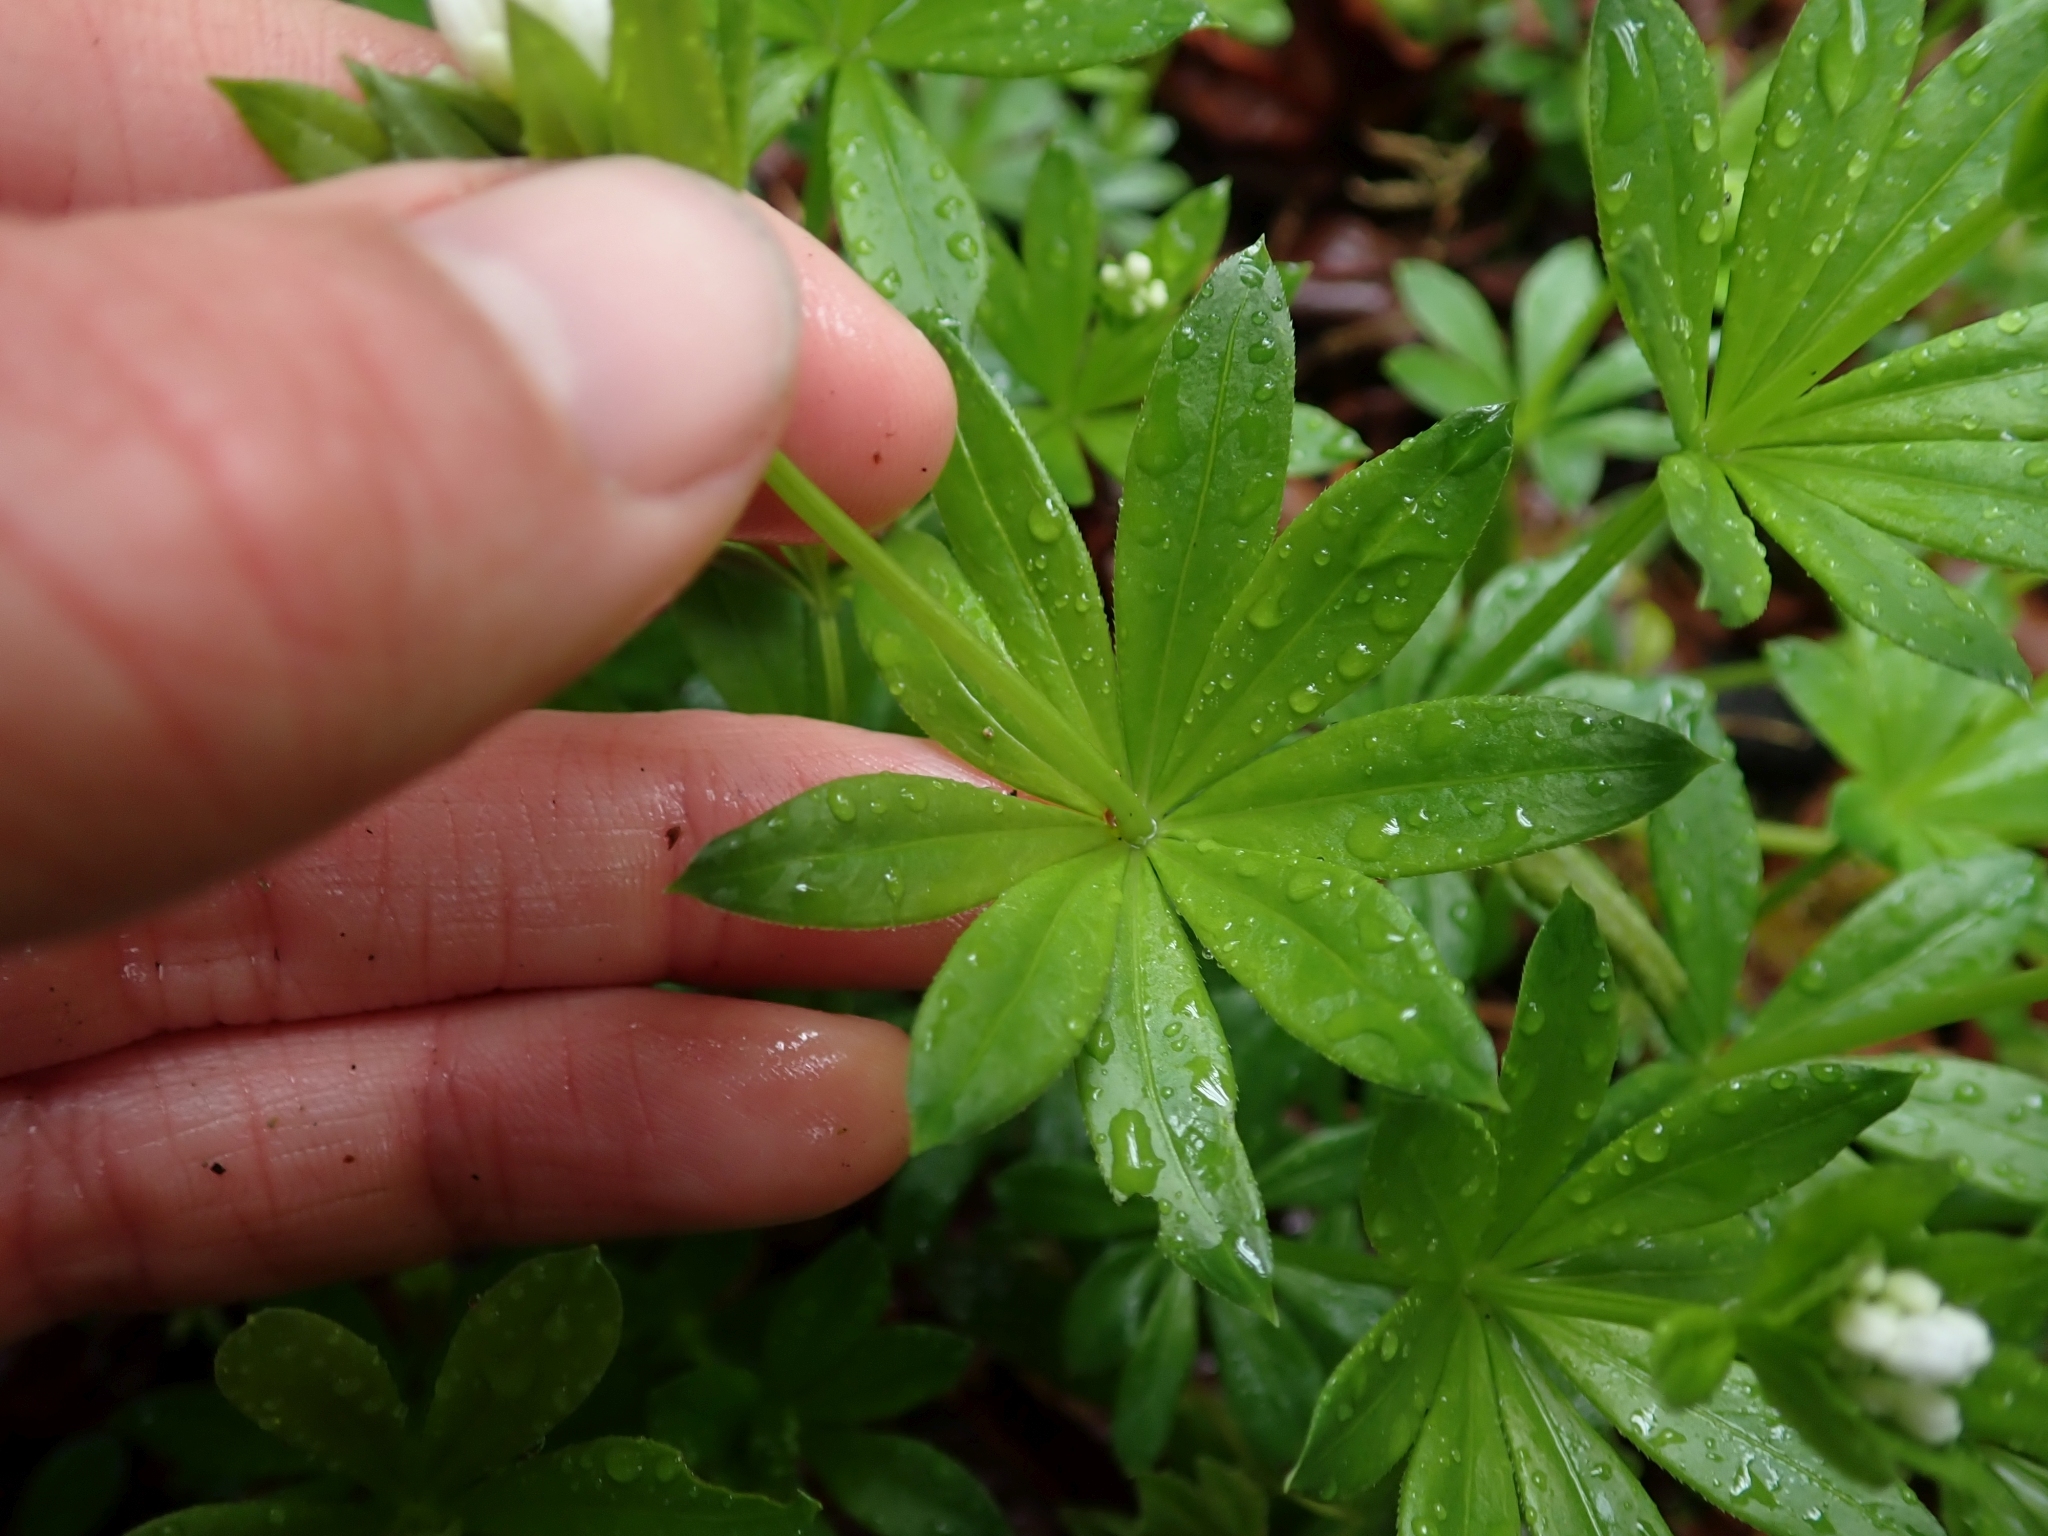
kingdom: Plantae
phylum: Tracheophyta
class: Magnoliopsida
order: Gentianales
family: Rubiaceae
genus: Galium
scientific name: Galium odoratum
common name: Sweet woodruff
